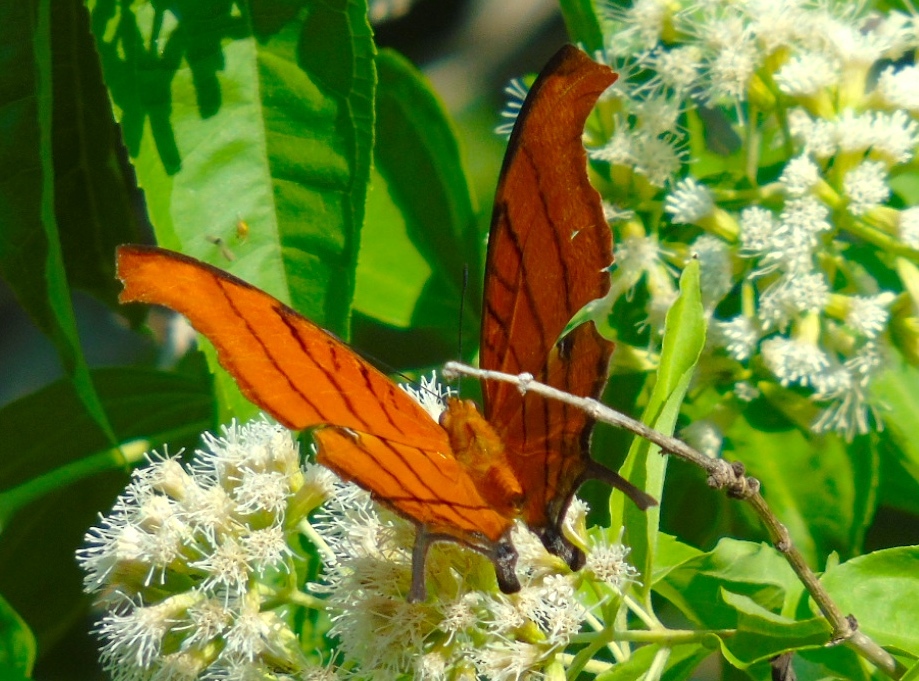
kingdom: Animalia
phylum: Arthropoda
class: Insecta
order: Lepidoptera
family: Nymphalidae
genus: Marpesia
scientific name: Marpesia petreus
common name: Red dagger wing
